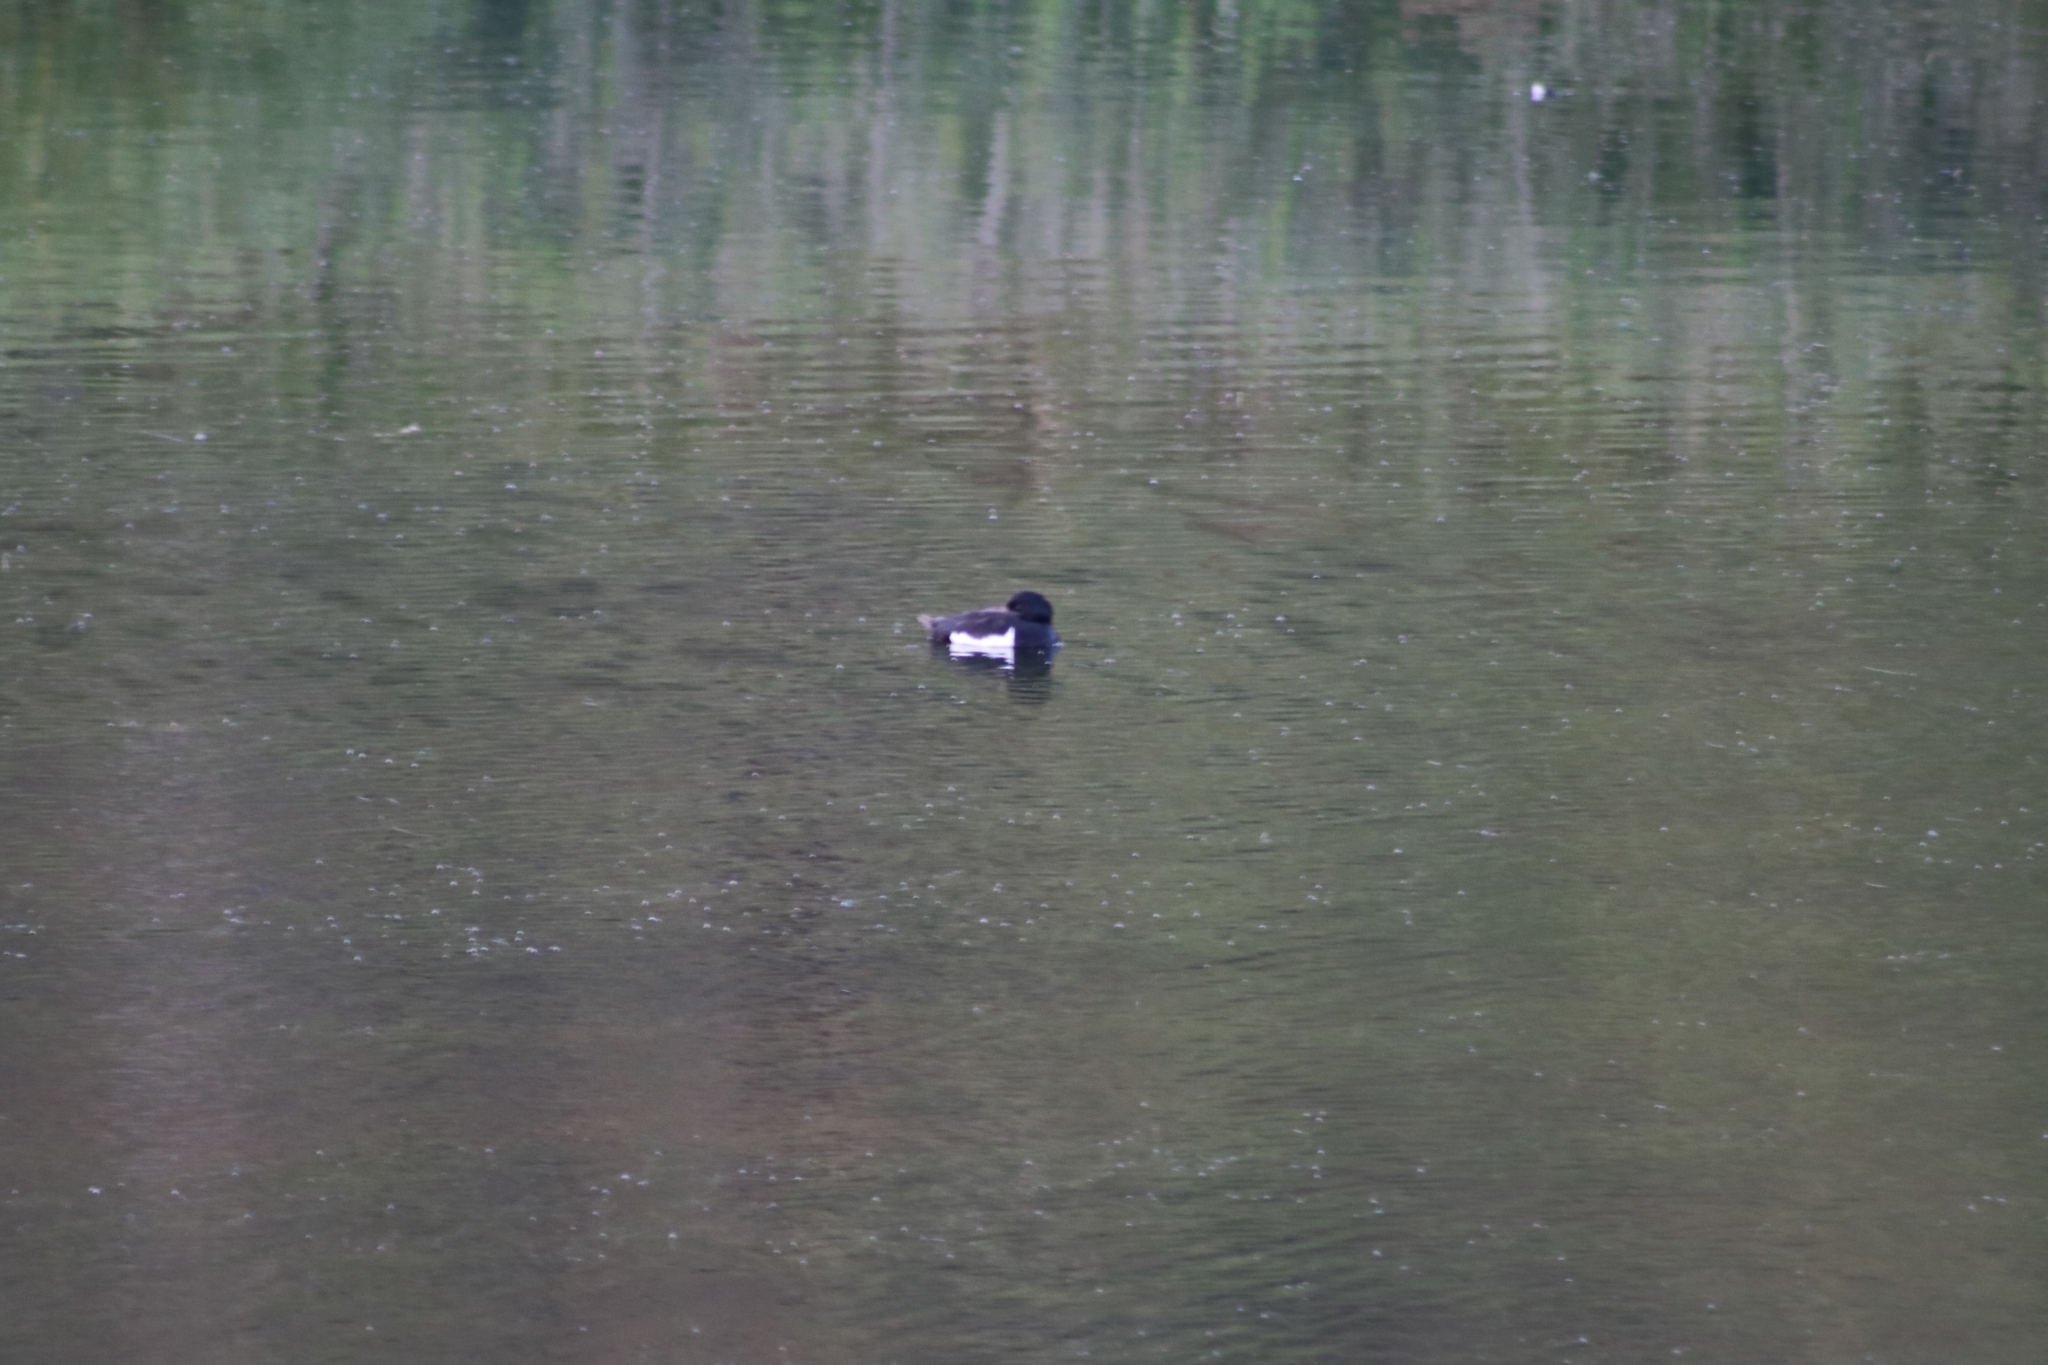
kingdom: Animalia
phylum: Chordata
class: Aves
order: Anseriformes
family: Anatidae
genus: Aythya
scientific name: Aythya fuligula
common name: Tufted duck
